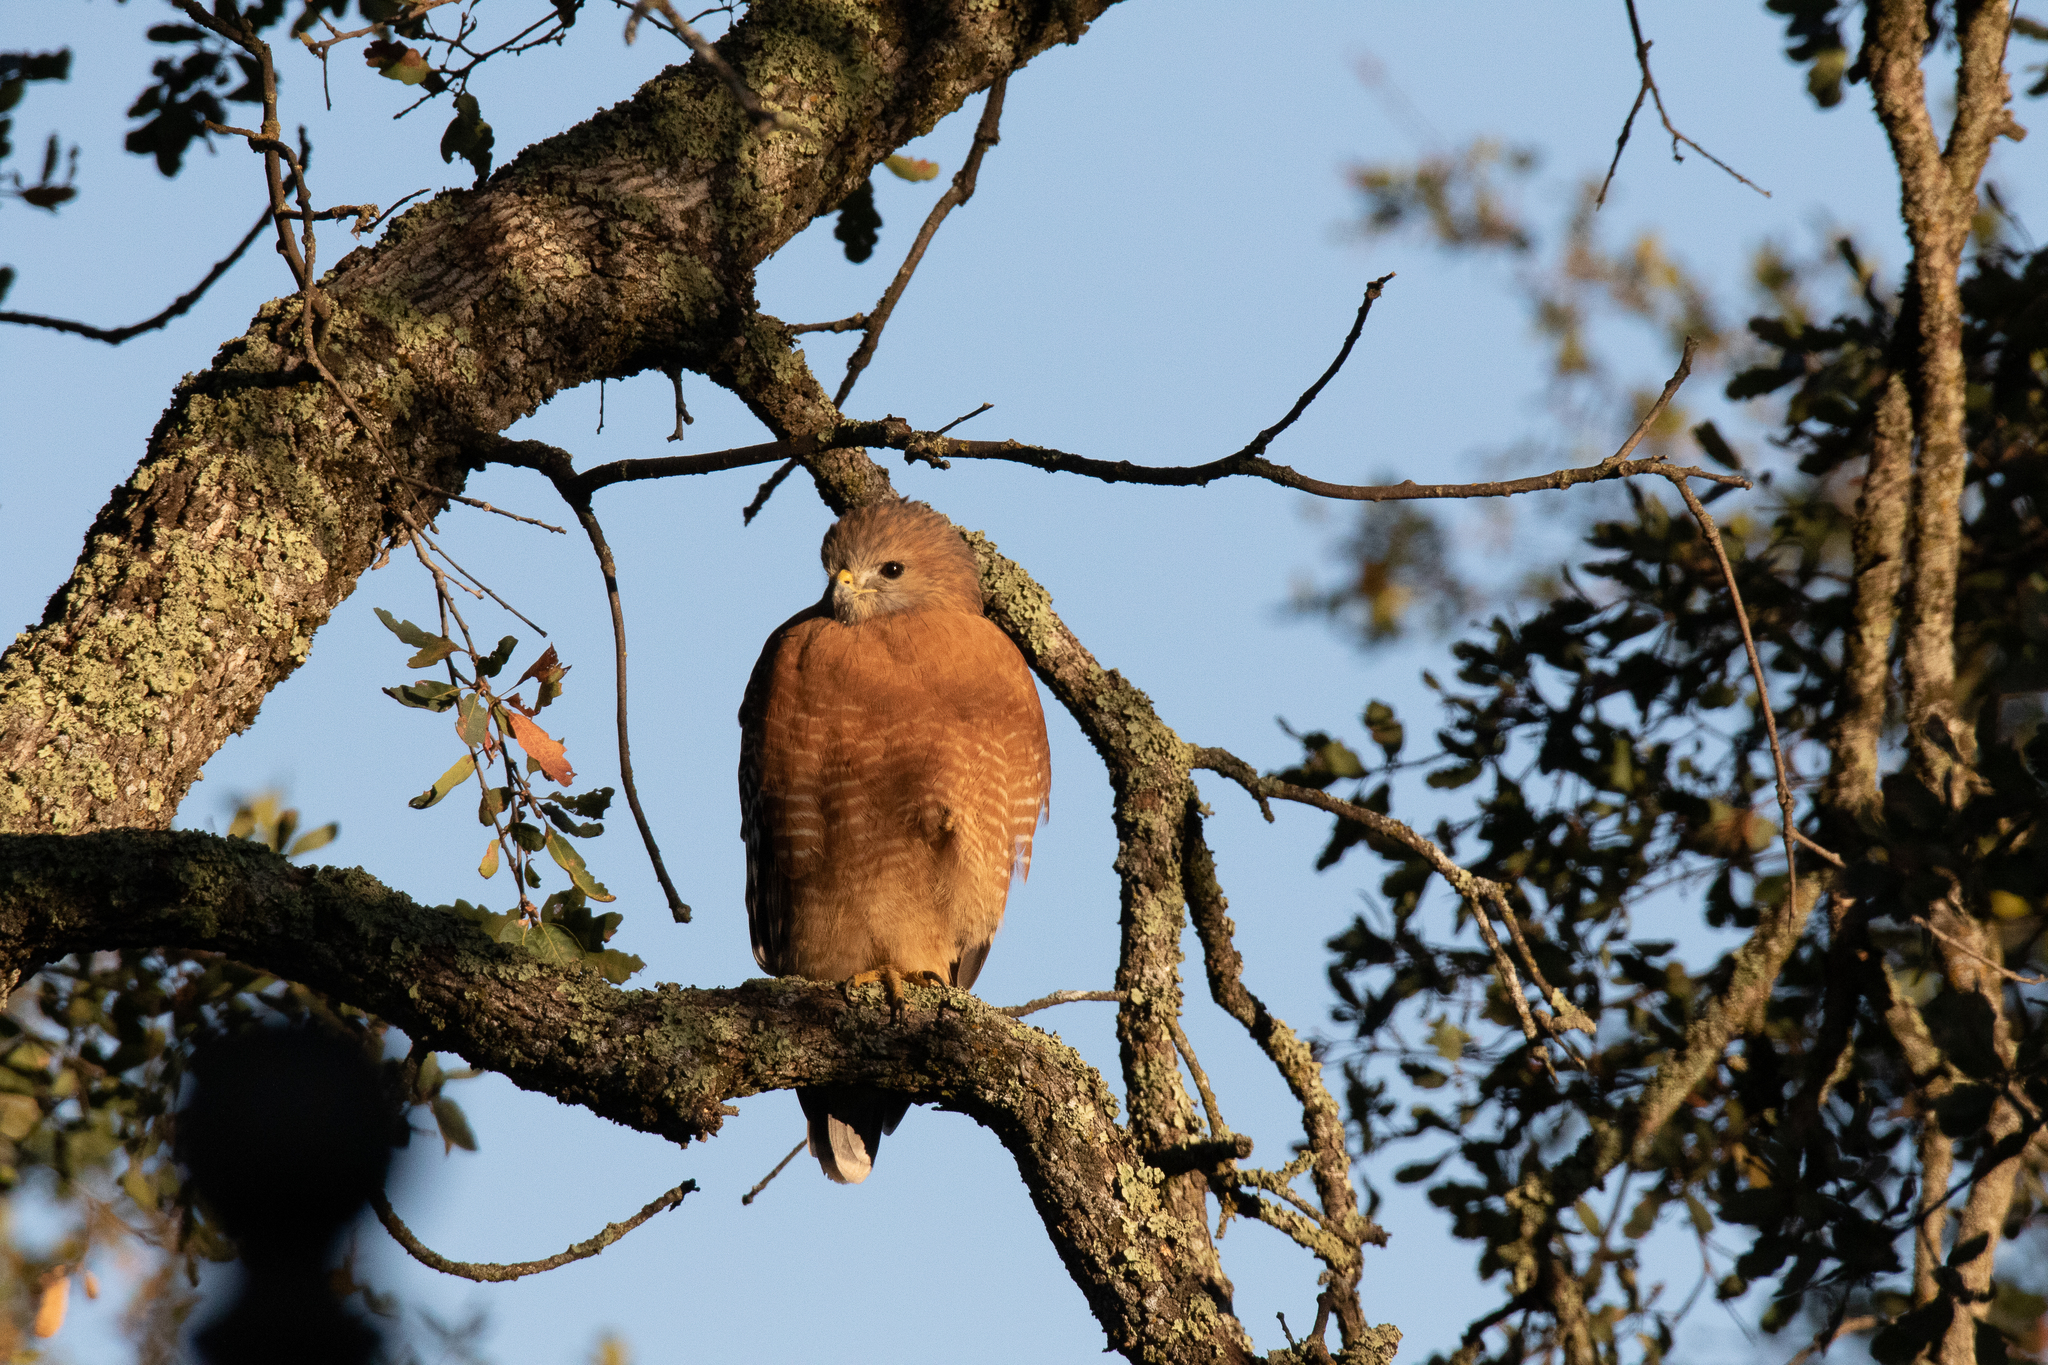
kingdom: Animalia
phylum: Chordata
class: Aves
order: Accipitriformes
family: Accipitridae
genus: Buteo
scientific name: Buteo lineatus
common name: Red-shouldered hawk
